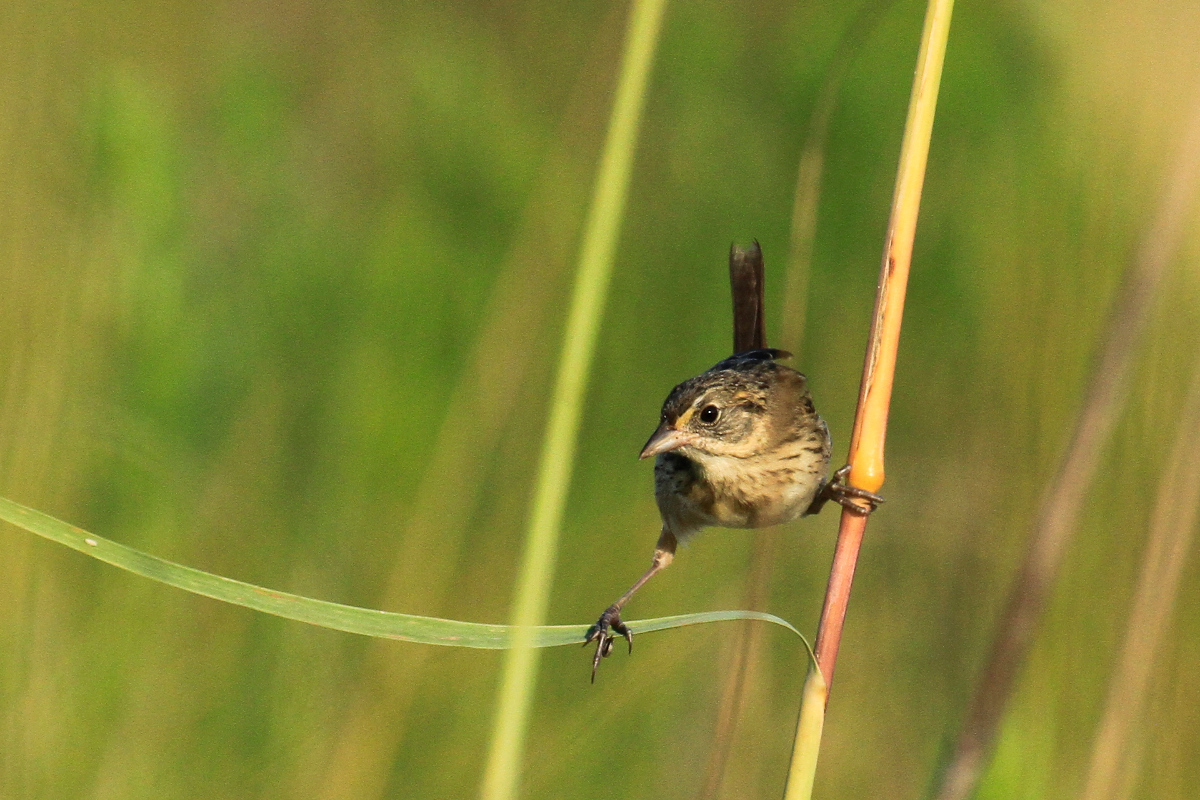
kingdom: Animalia
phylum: Chordata
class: Aves
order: Passeriformes
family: Passerellidae
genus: Ammospiza
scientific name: Ammospiza maritima
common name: Seaside sparrow
